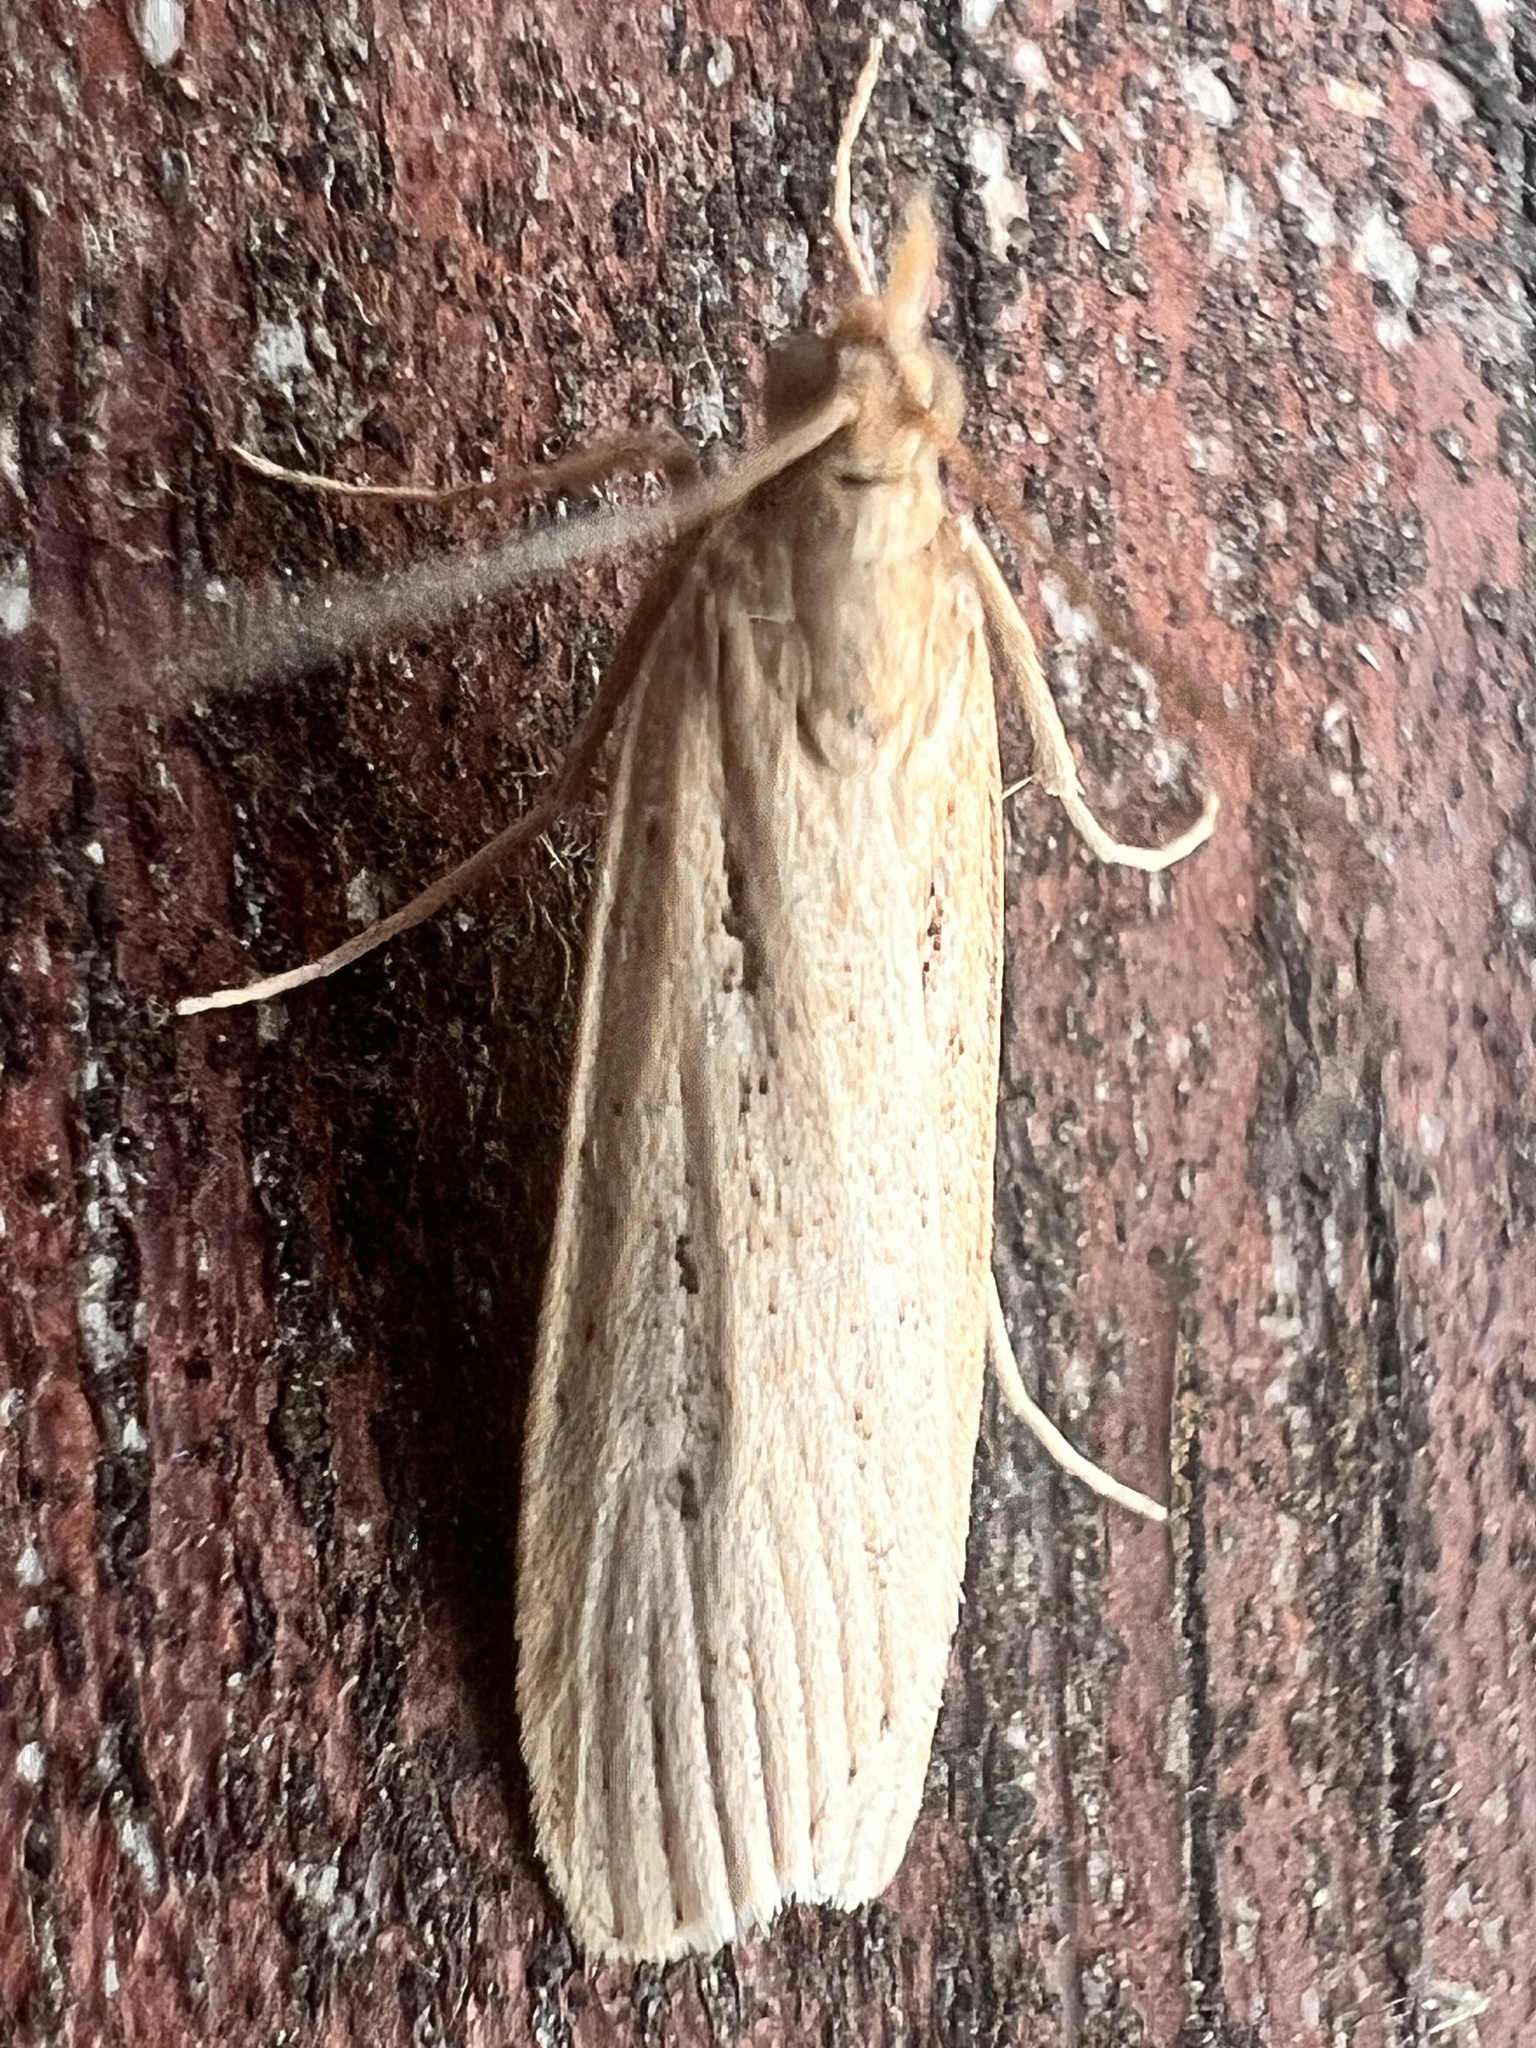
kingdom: Animalia
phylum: Arthropoda
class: Insecta
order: Lepidoptera
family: Crambidae
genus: Eudonia
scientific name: Eudonia sabulosella
